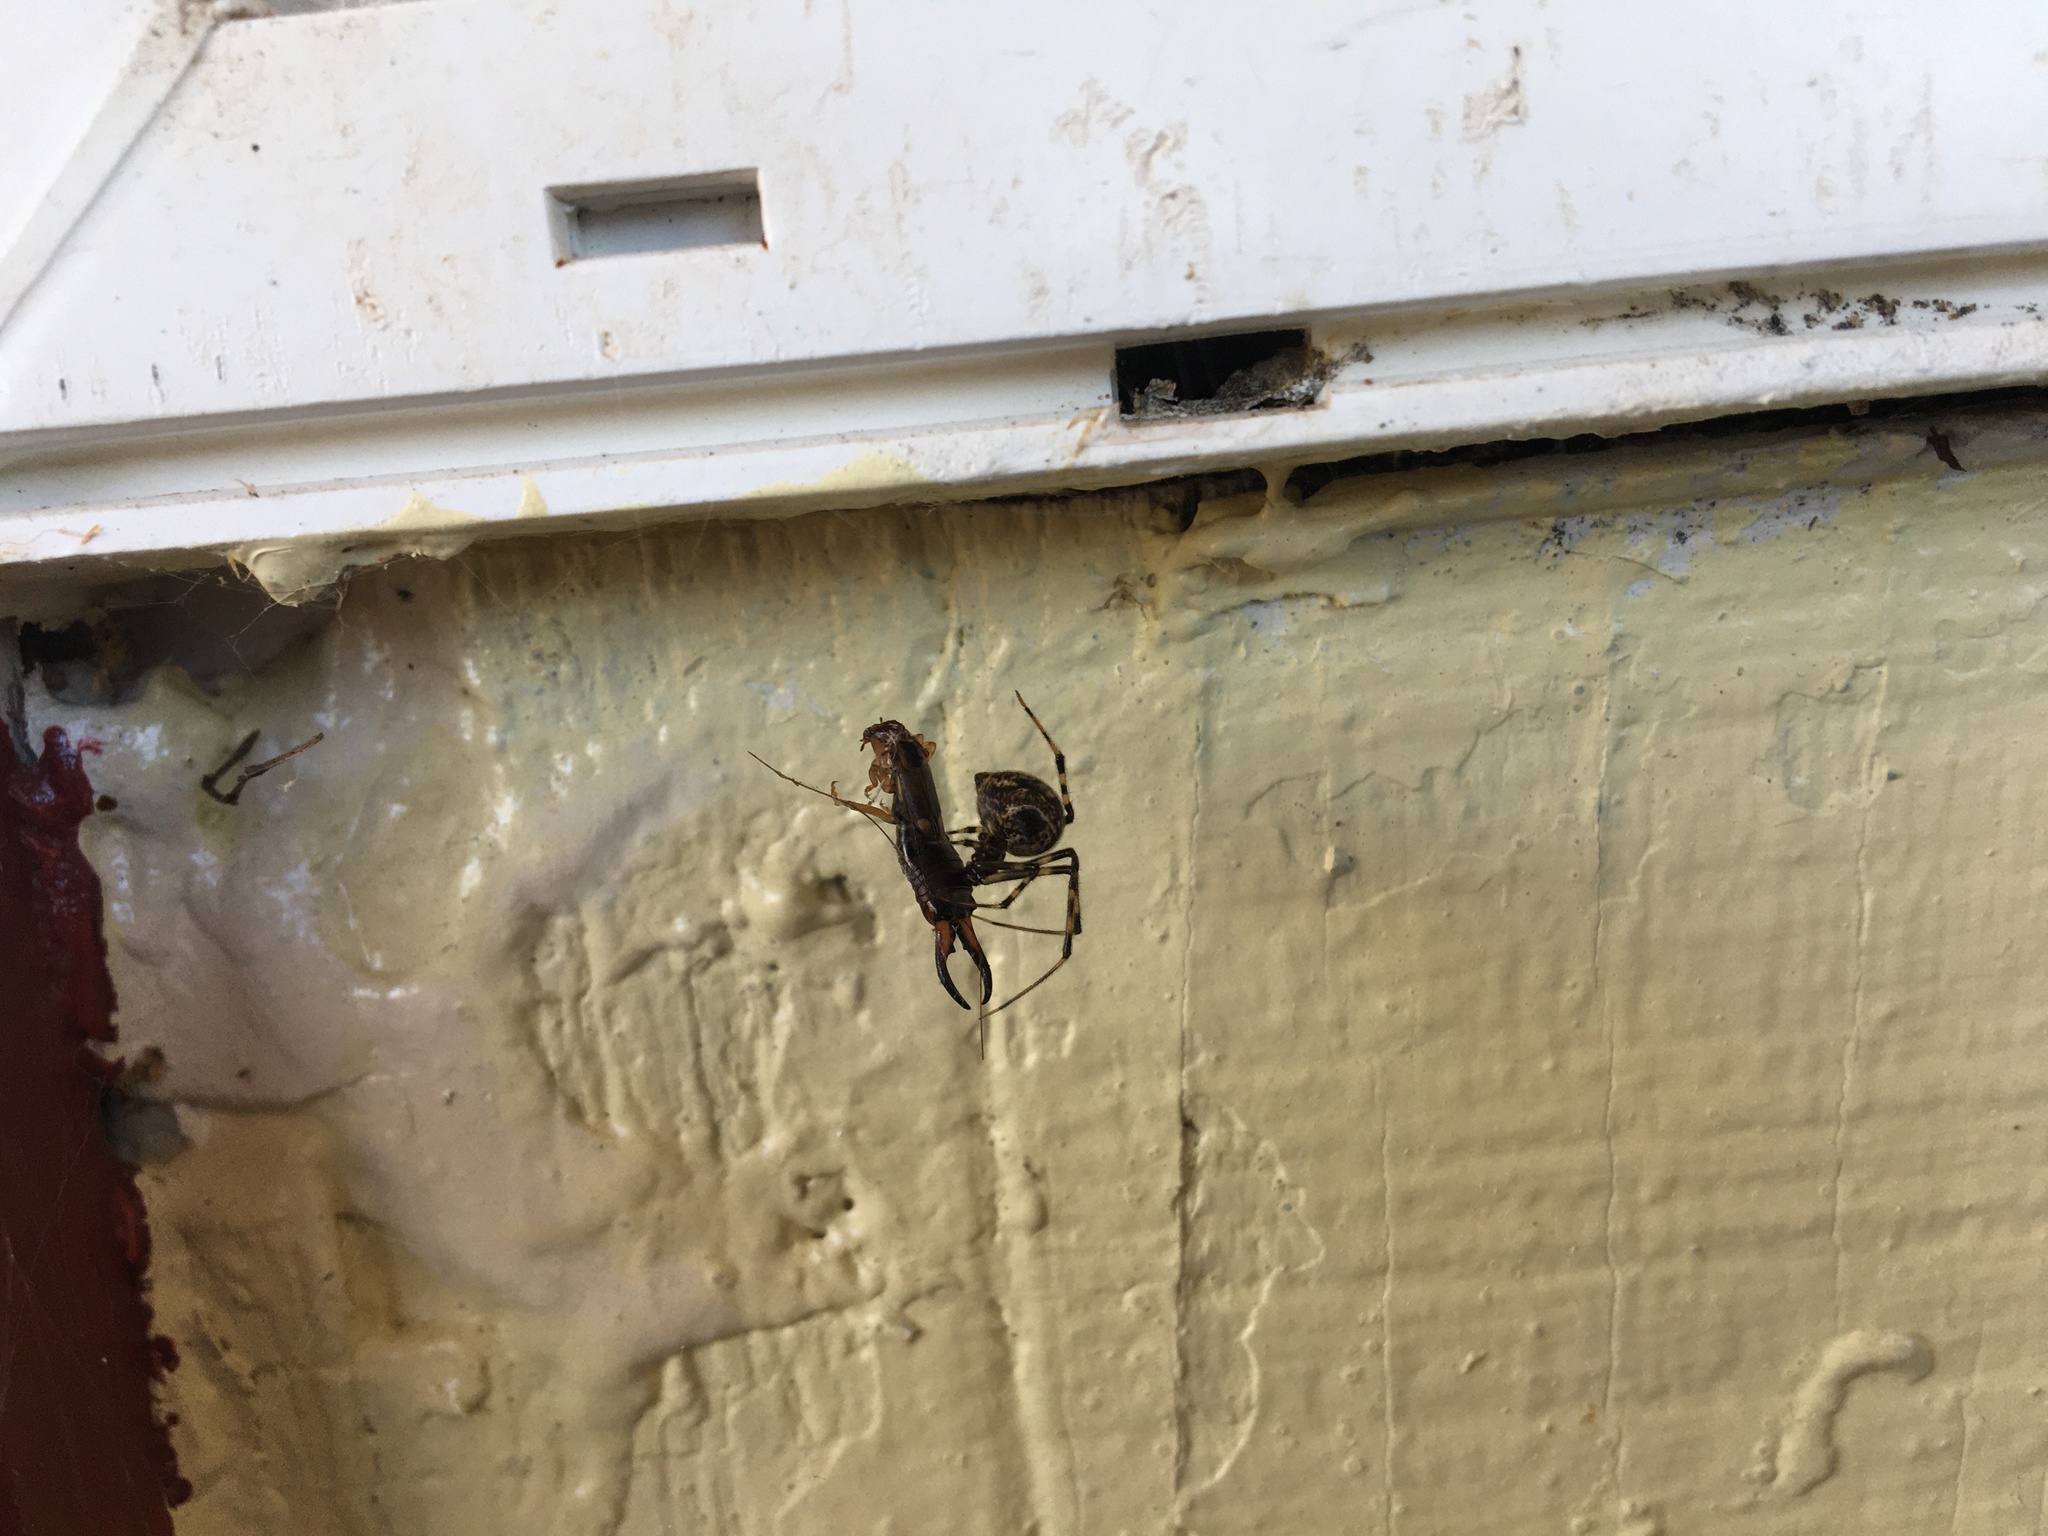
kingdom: Animalia
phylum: Arthropoda
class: Insecta
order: Dermaptera
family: Forficulidae
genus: Forficula
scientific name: Forficula
